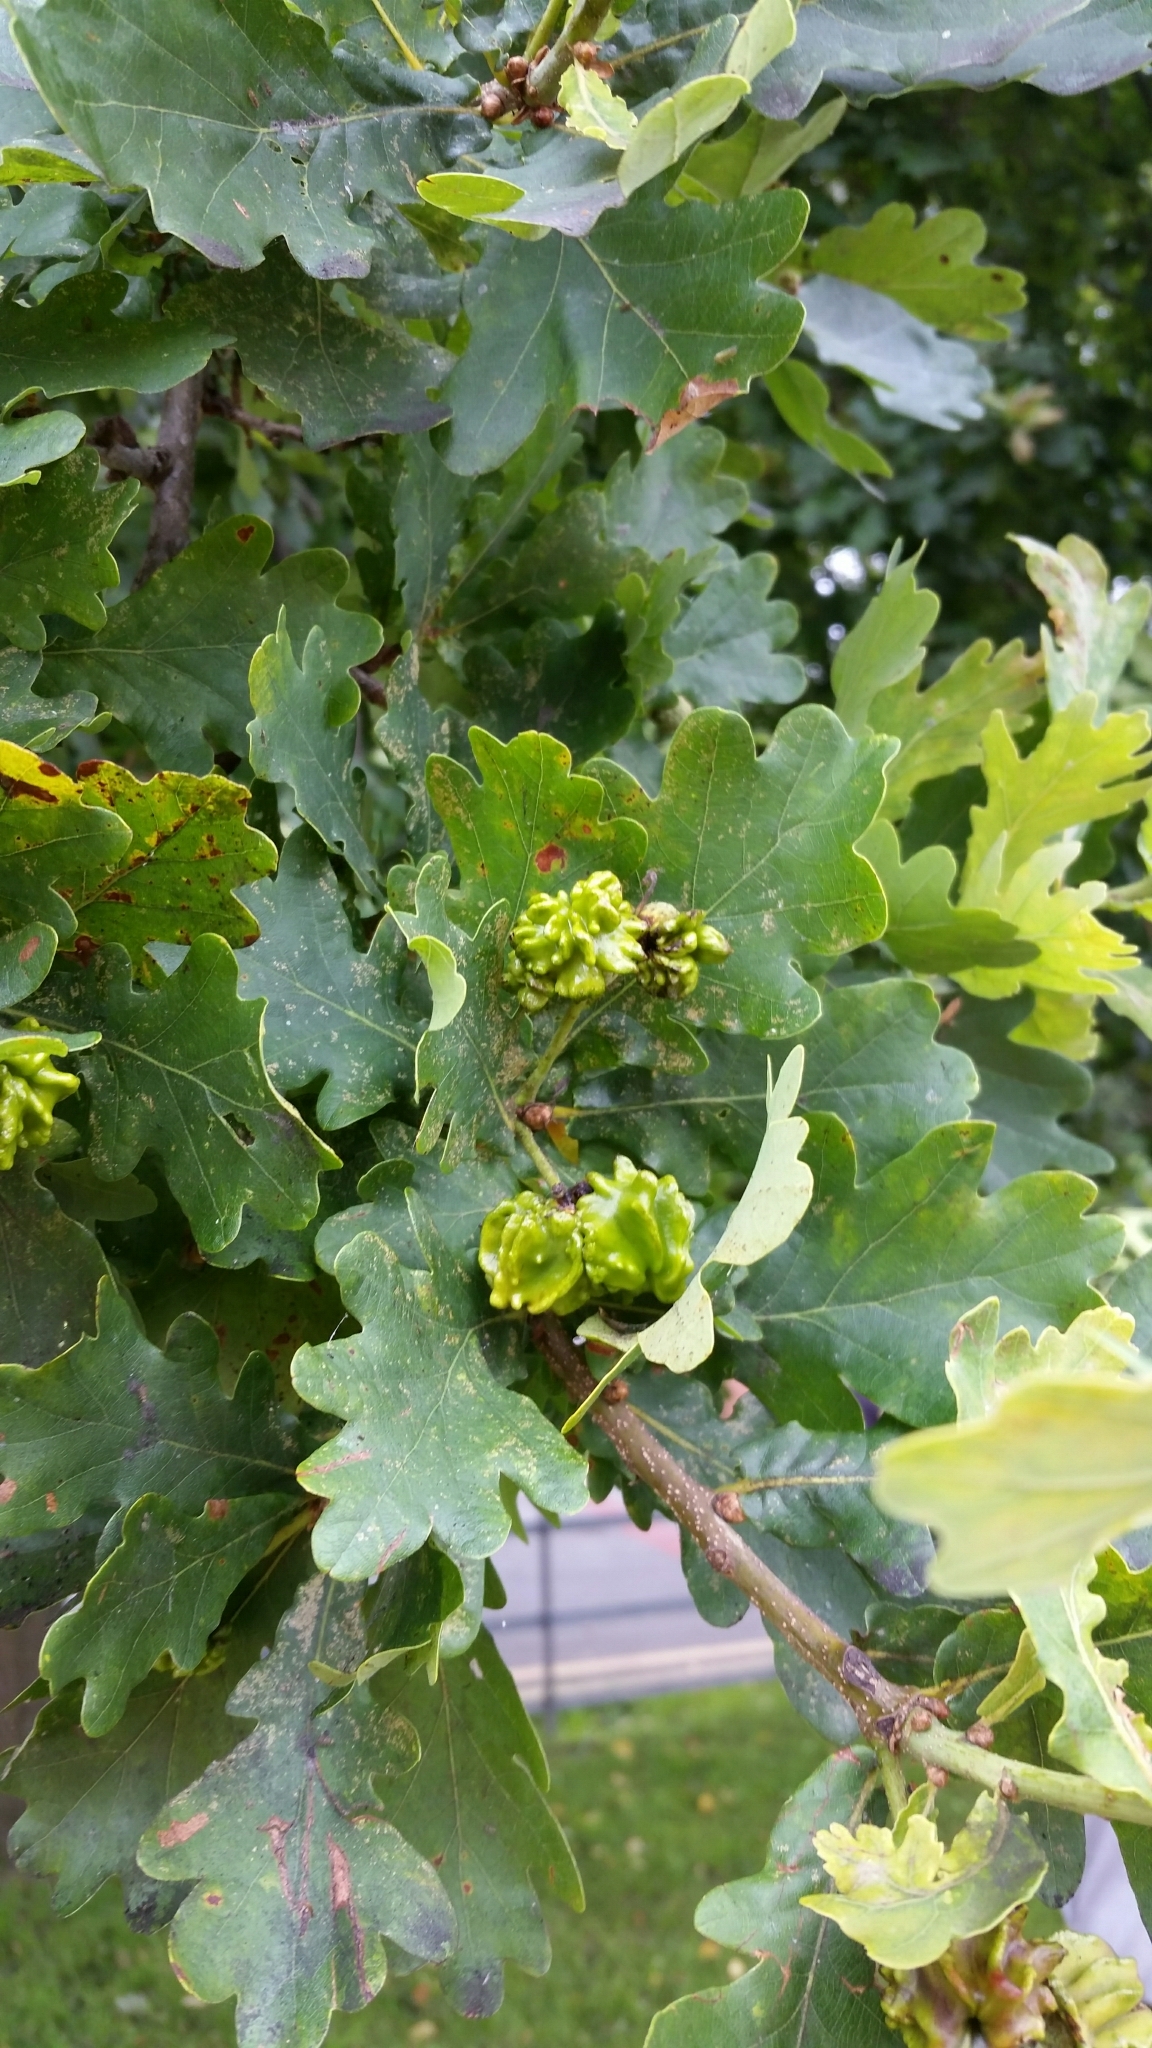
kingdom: Plantae
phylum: Tracheophyta
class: Magnoliopsida
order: Fagales
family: Fagaceae
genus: Quercus
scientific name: Quercus robur
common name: Pedunculate oak
